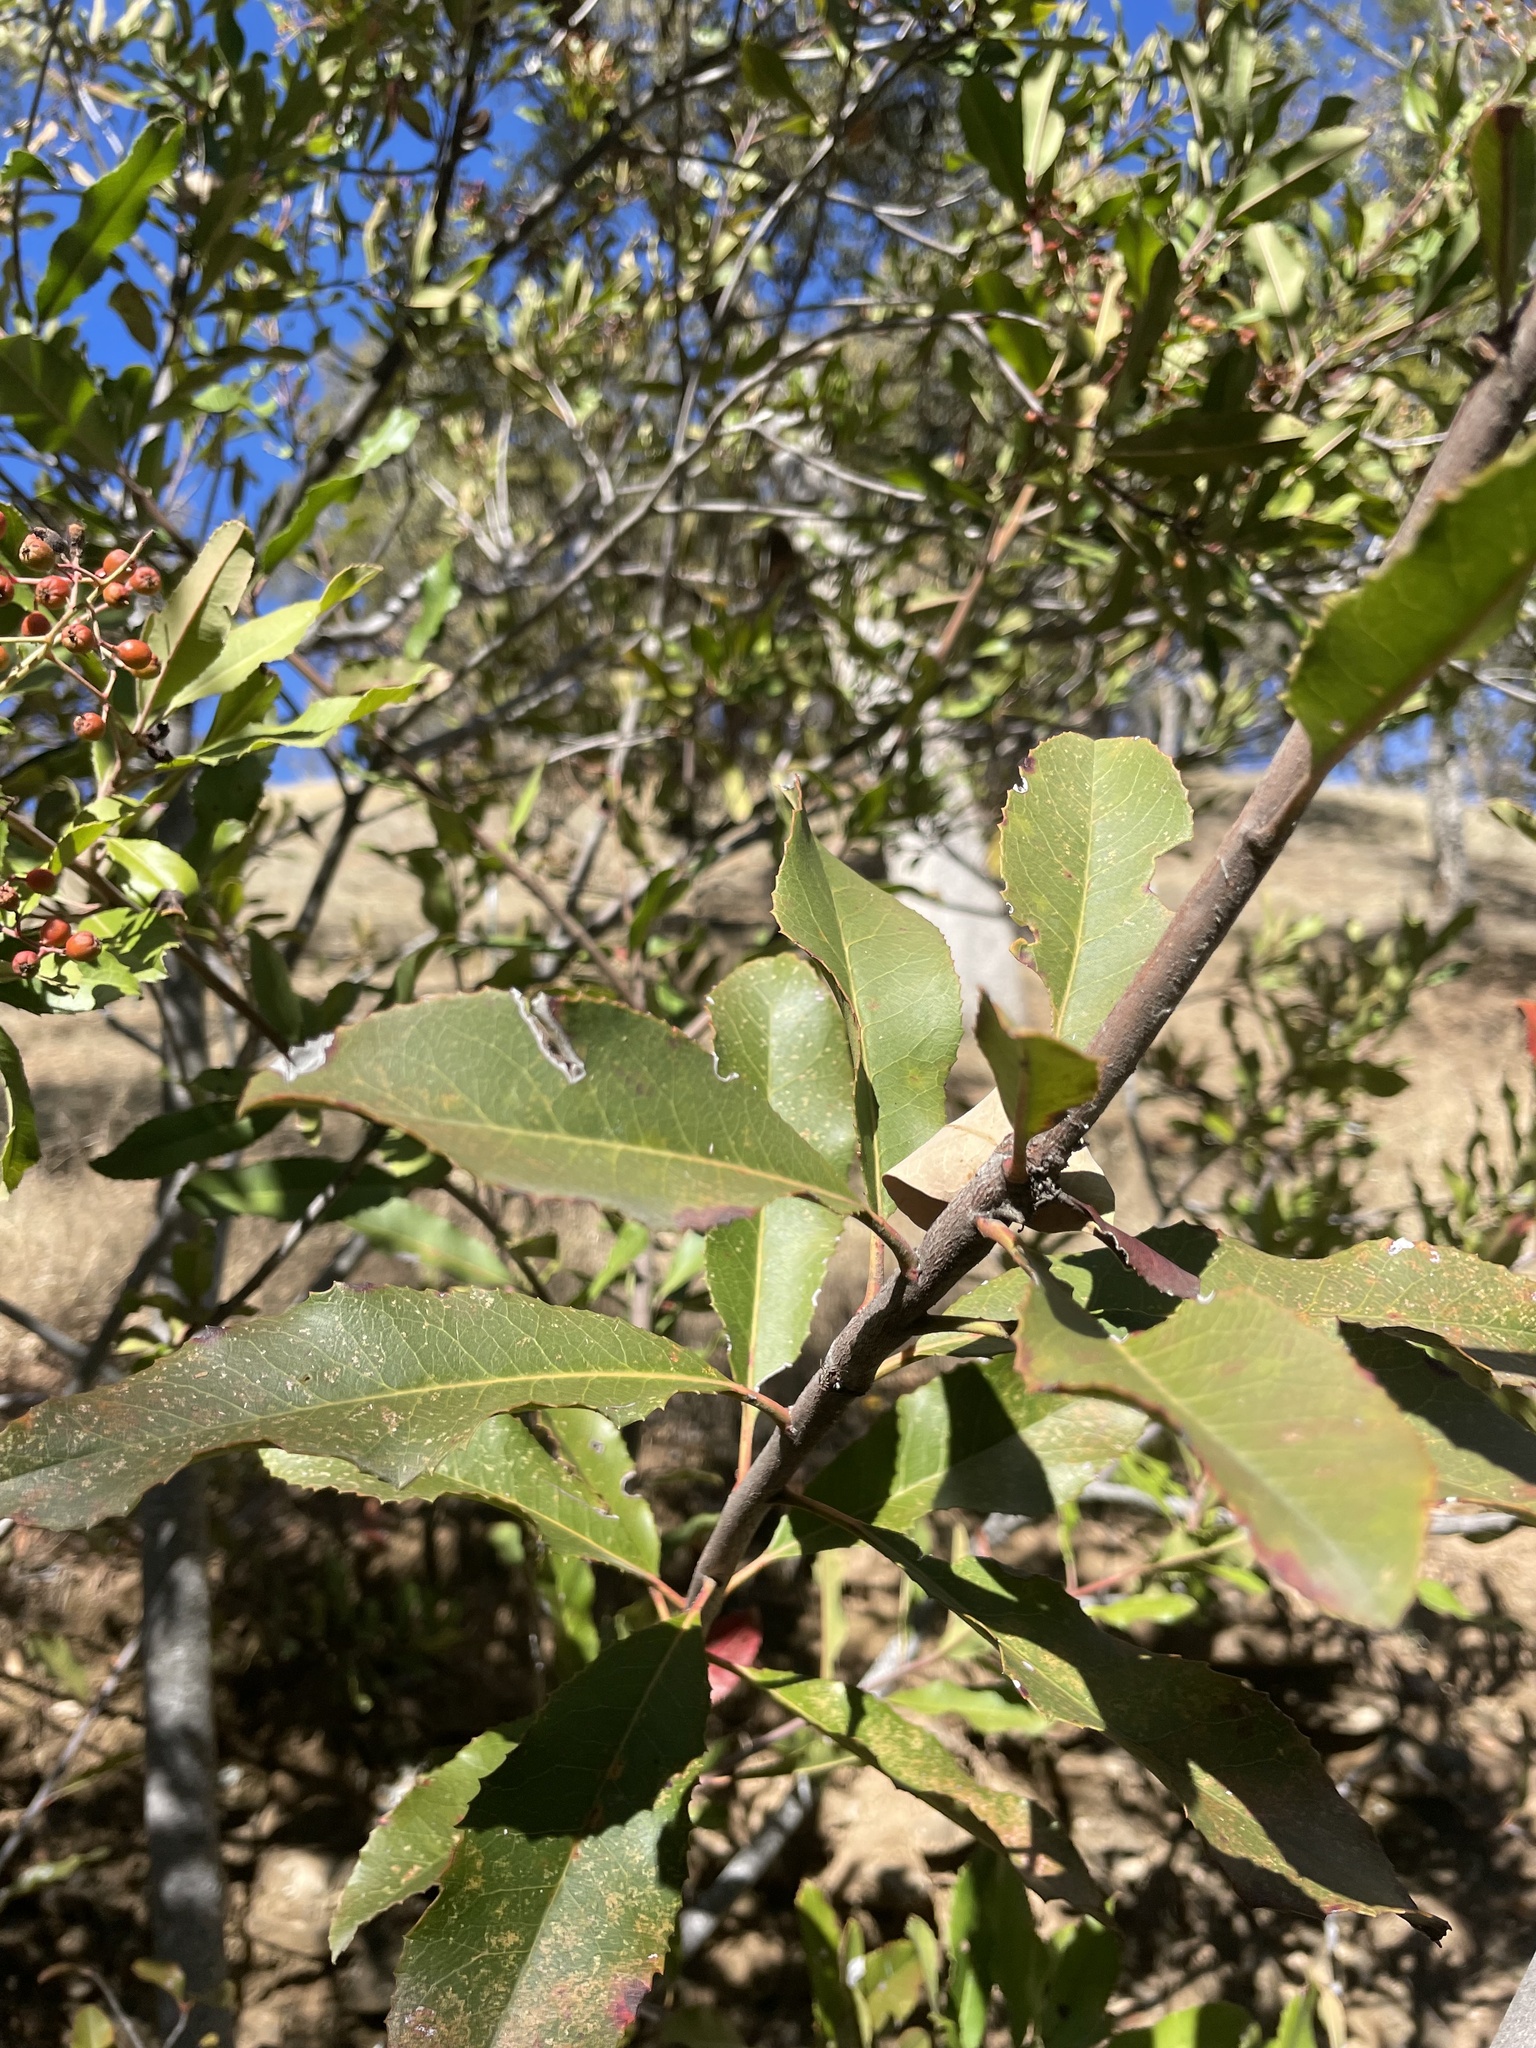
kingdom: Plantae
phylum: Tracheophyta
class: Magnoliopsida
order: Rosales
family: Rosaceae
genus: Heteromeles
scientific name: Heteromeles arbutifolia
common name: California-holly
